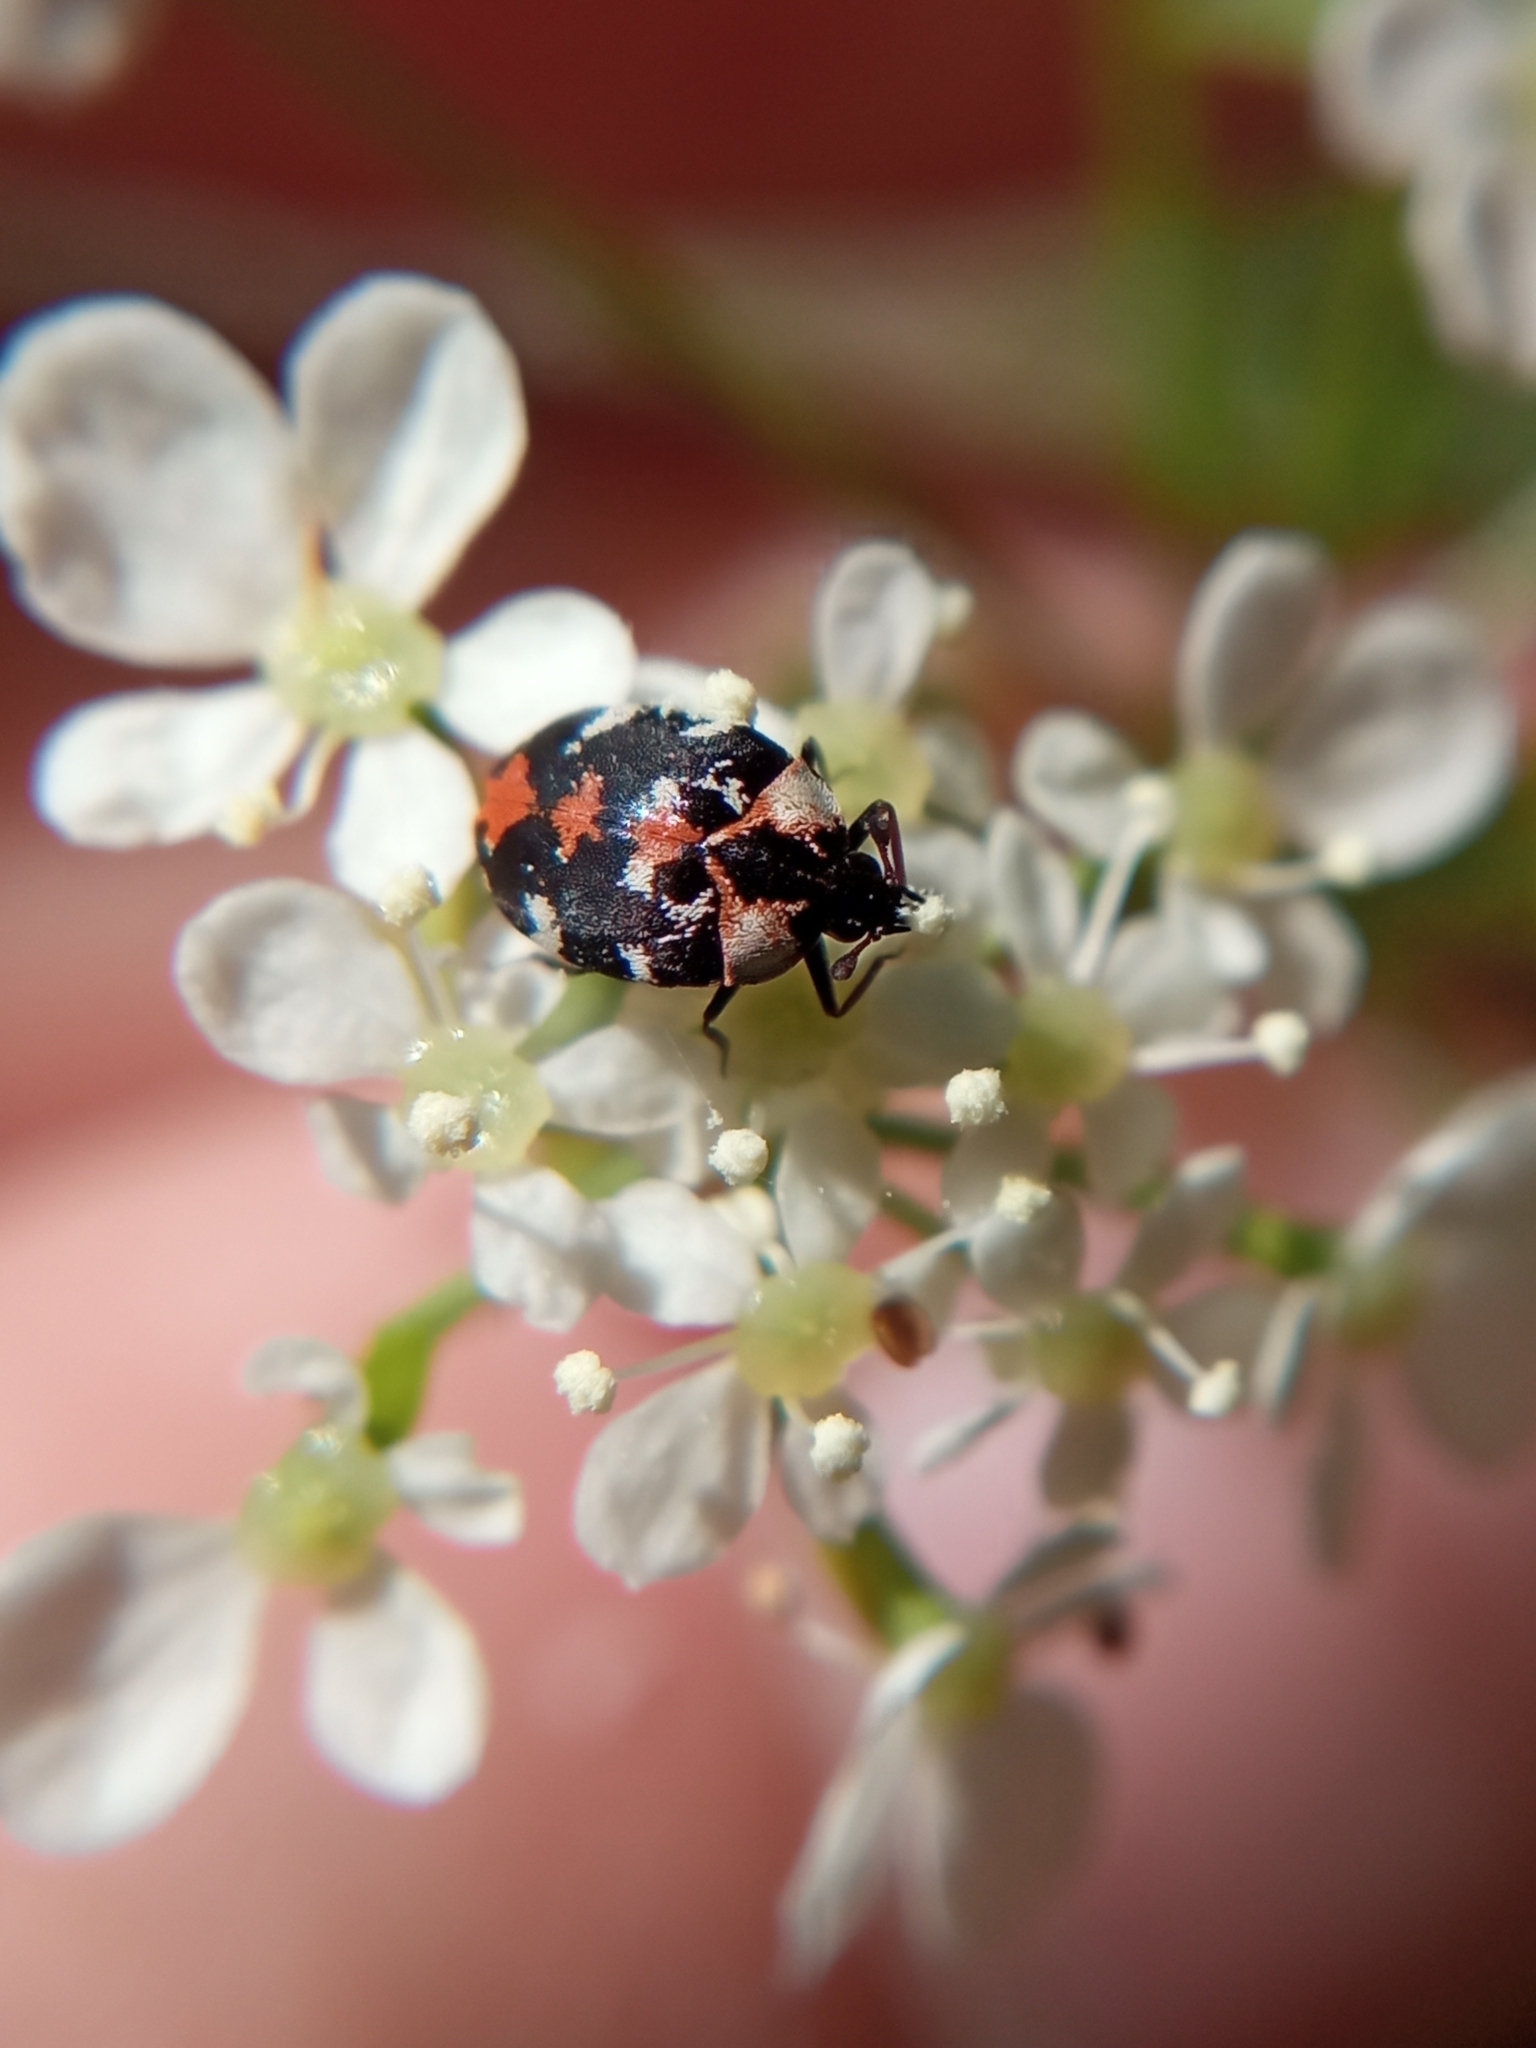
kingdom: Animalia
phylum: Arthropoda
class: Insecta
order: Coleoptera
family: Dermestidae
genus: Anthrenus
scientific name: Anthrenus scrophulariae
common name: Buffalo carpet beetle
